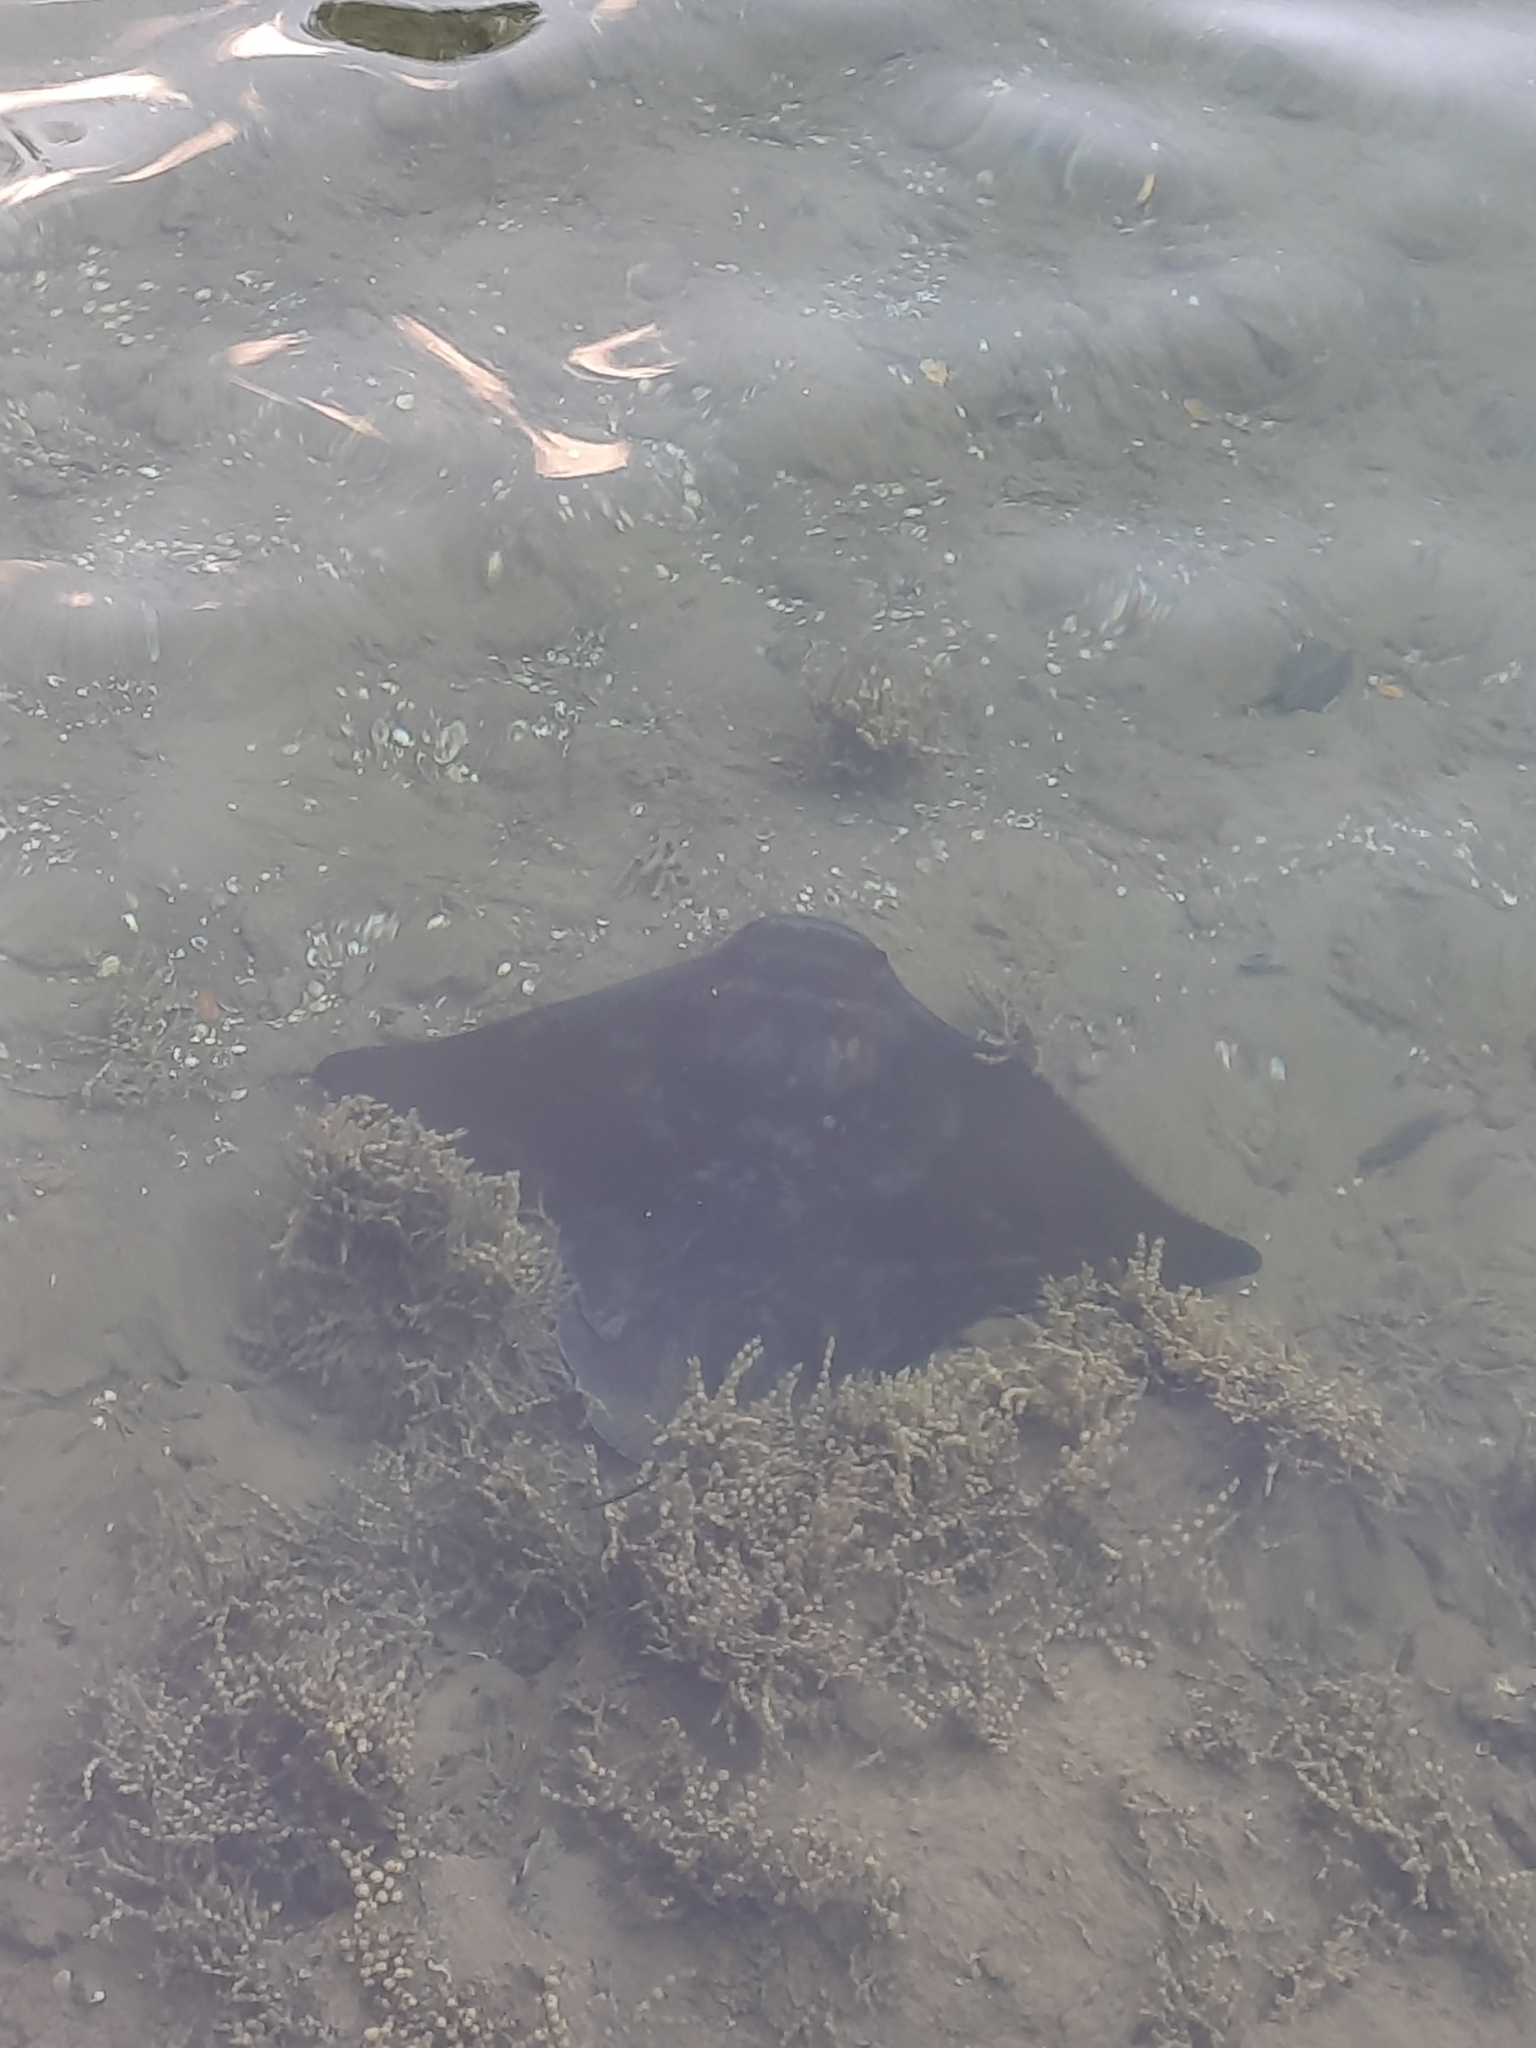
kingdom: Animalia
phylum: Chordata
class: Elasmobranchii
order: Myliobatiformes
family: Myliobatidae
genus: Myliobatis
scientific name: Myliobatis tenuicaudatus
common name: Eagle ray
